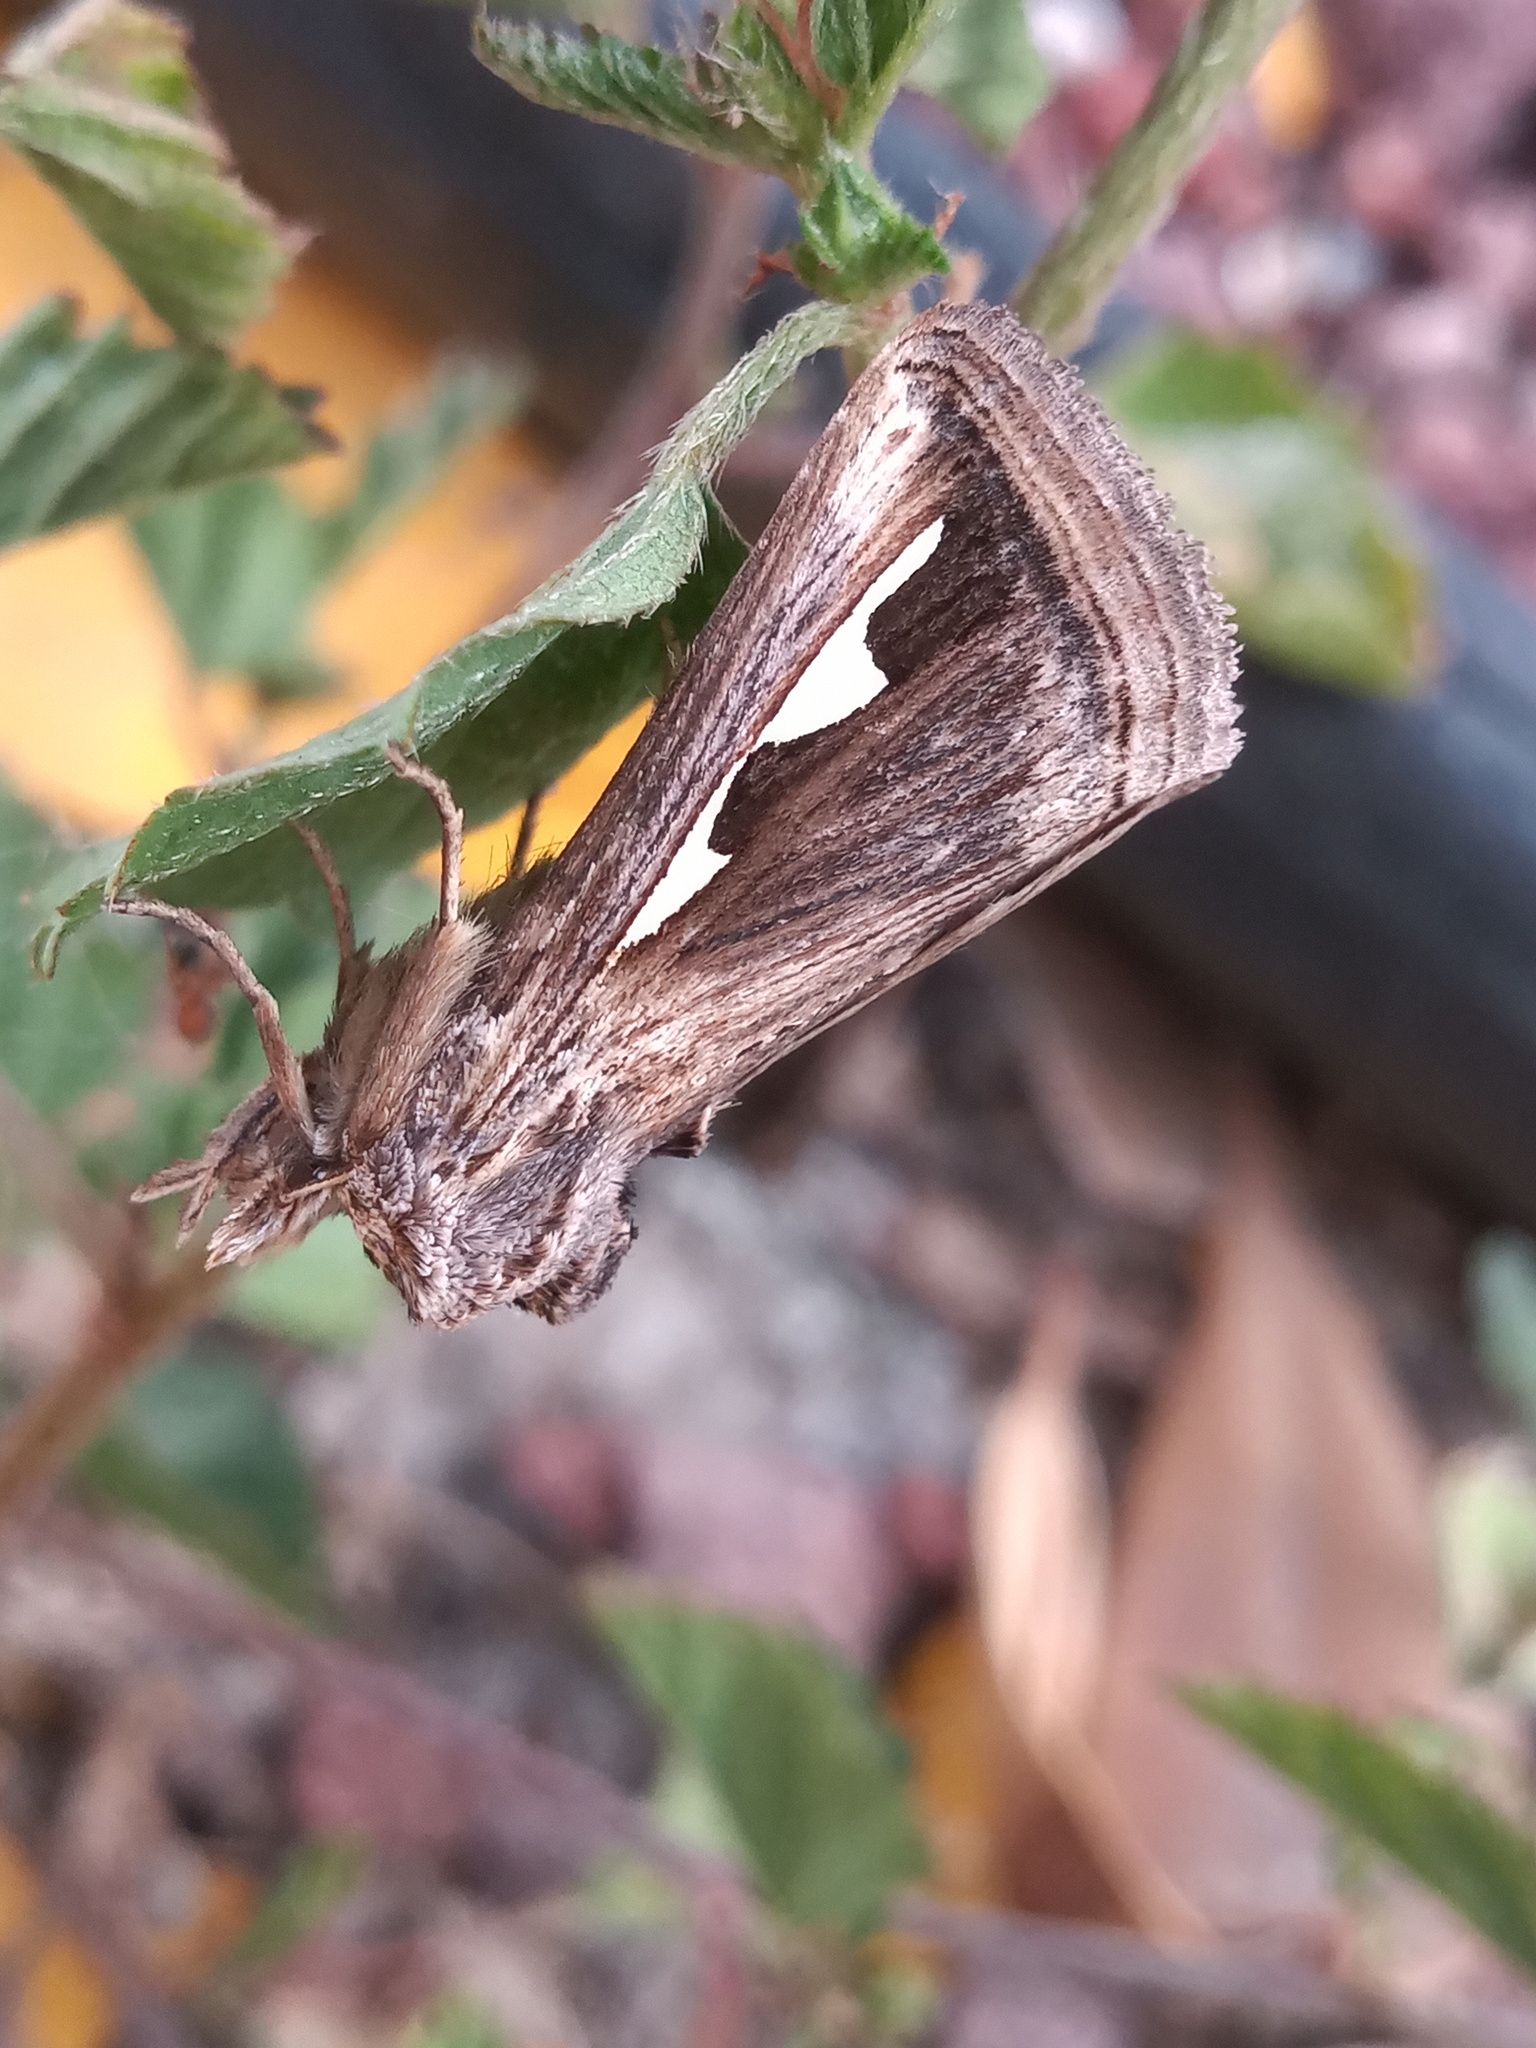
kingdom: Animalia
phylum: Arthropoda
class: Insecta
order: Lepidoptera
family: Notodontidae
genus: Didugua
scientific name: Didugua argentilinea
